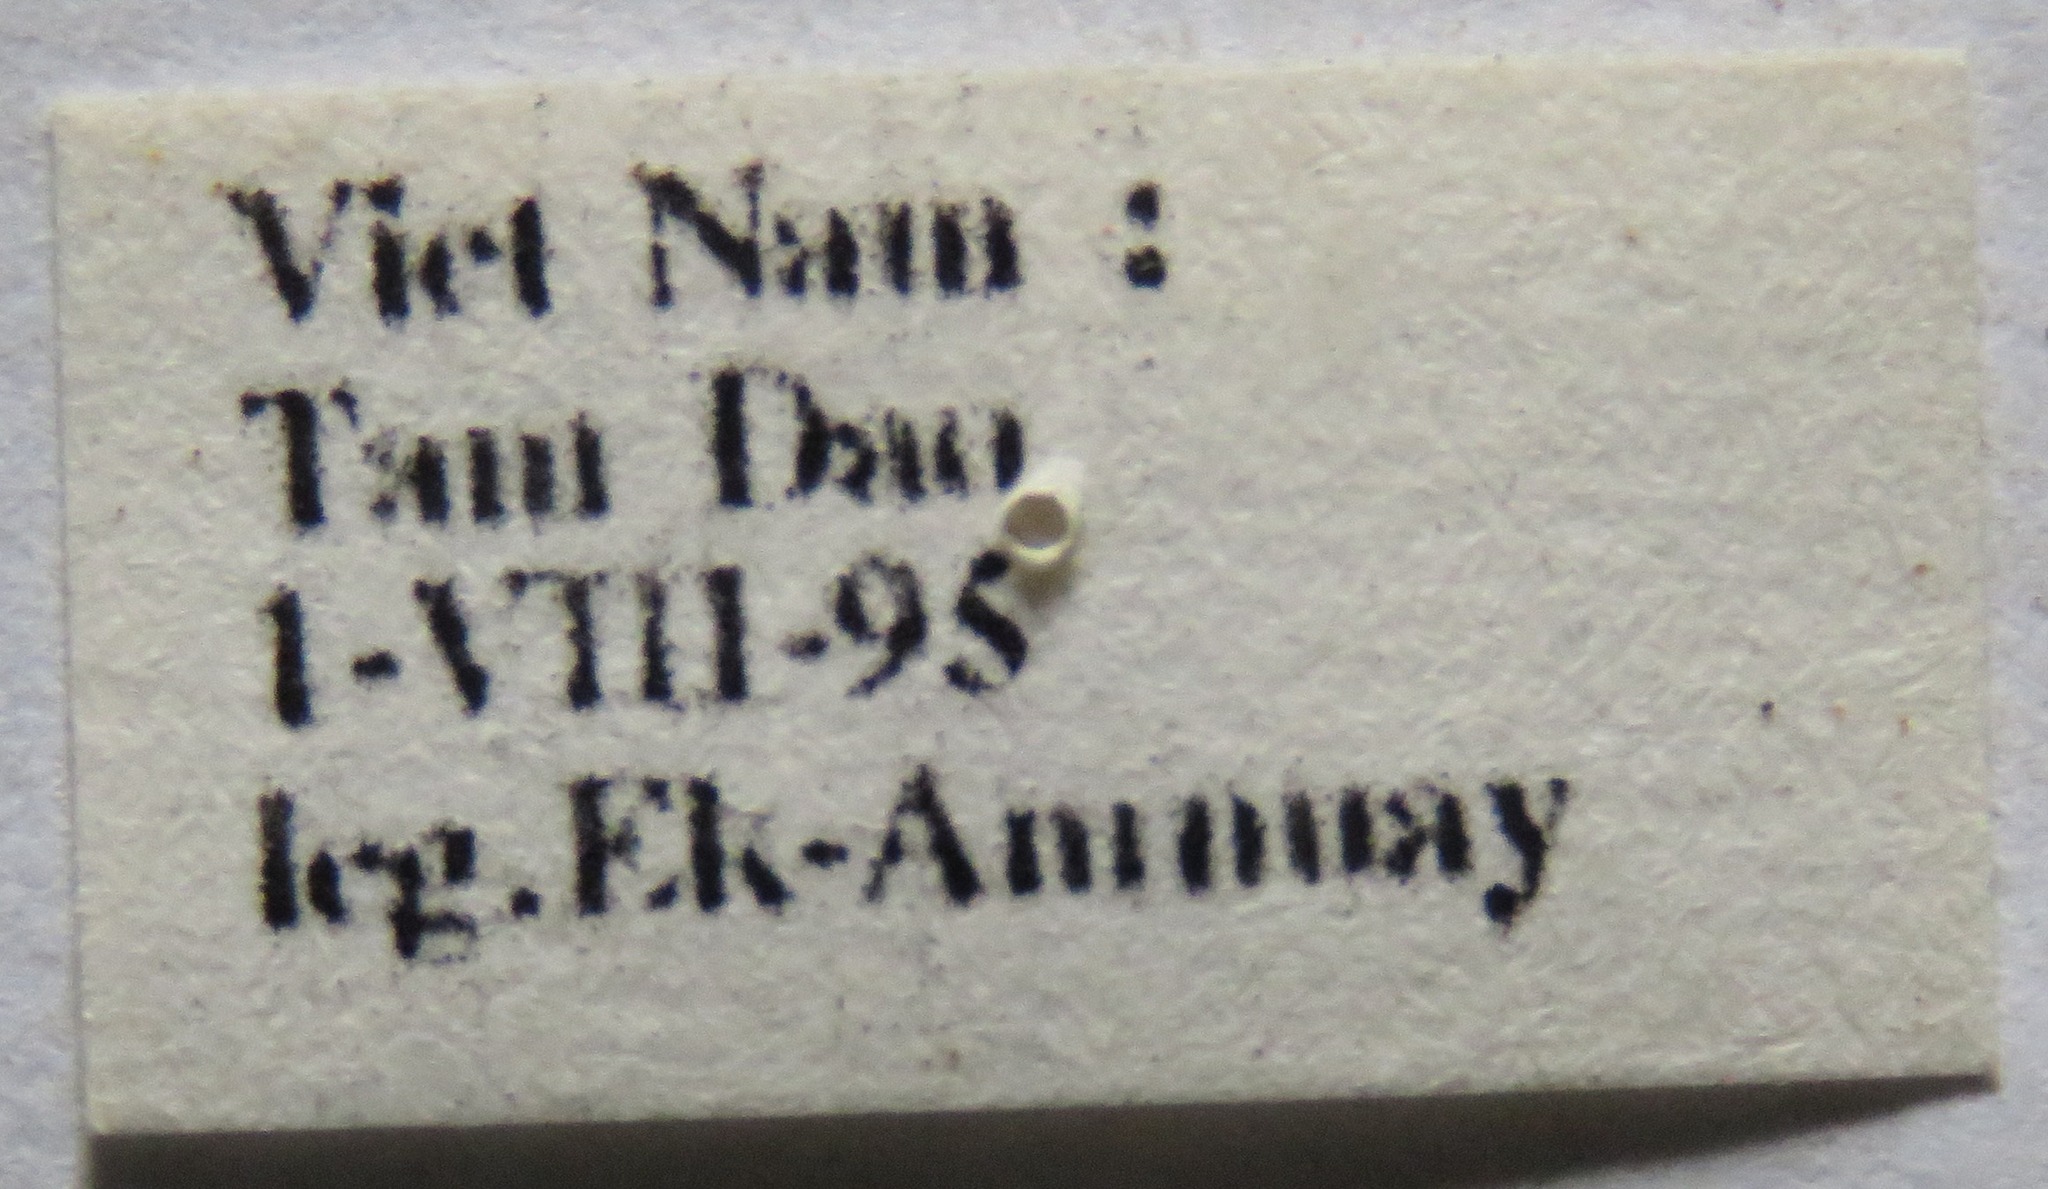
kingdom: Animalia
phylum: Arthropoda
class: Insecta
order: Coleoptera
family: Lucanidae
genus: Prosopocoilus
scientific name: Prosopocoilus doris
